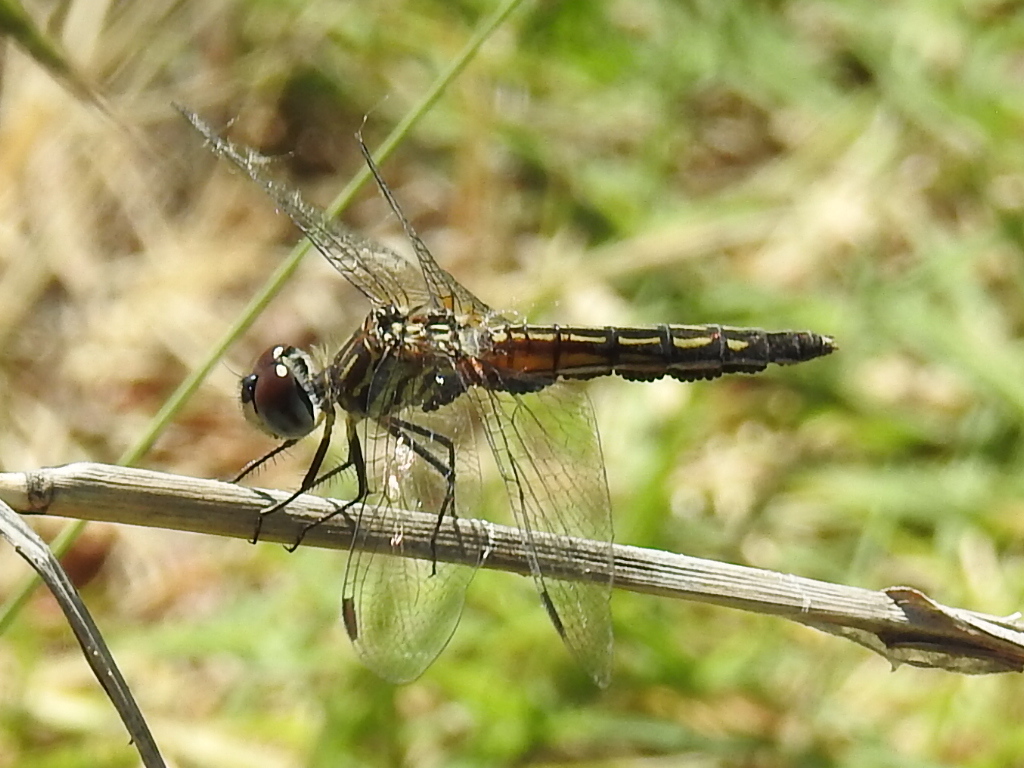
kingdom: Animalia
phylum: Arthropoda
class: Insecta
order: Odonata
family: Libellulidae
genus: Pachydiplax
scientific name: Pachydiplax longipennis
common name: Blue dasher
